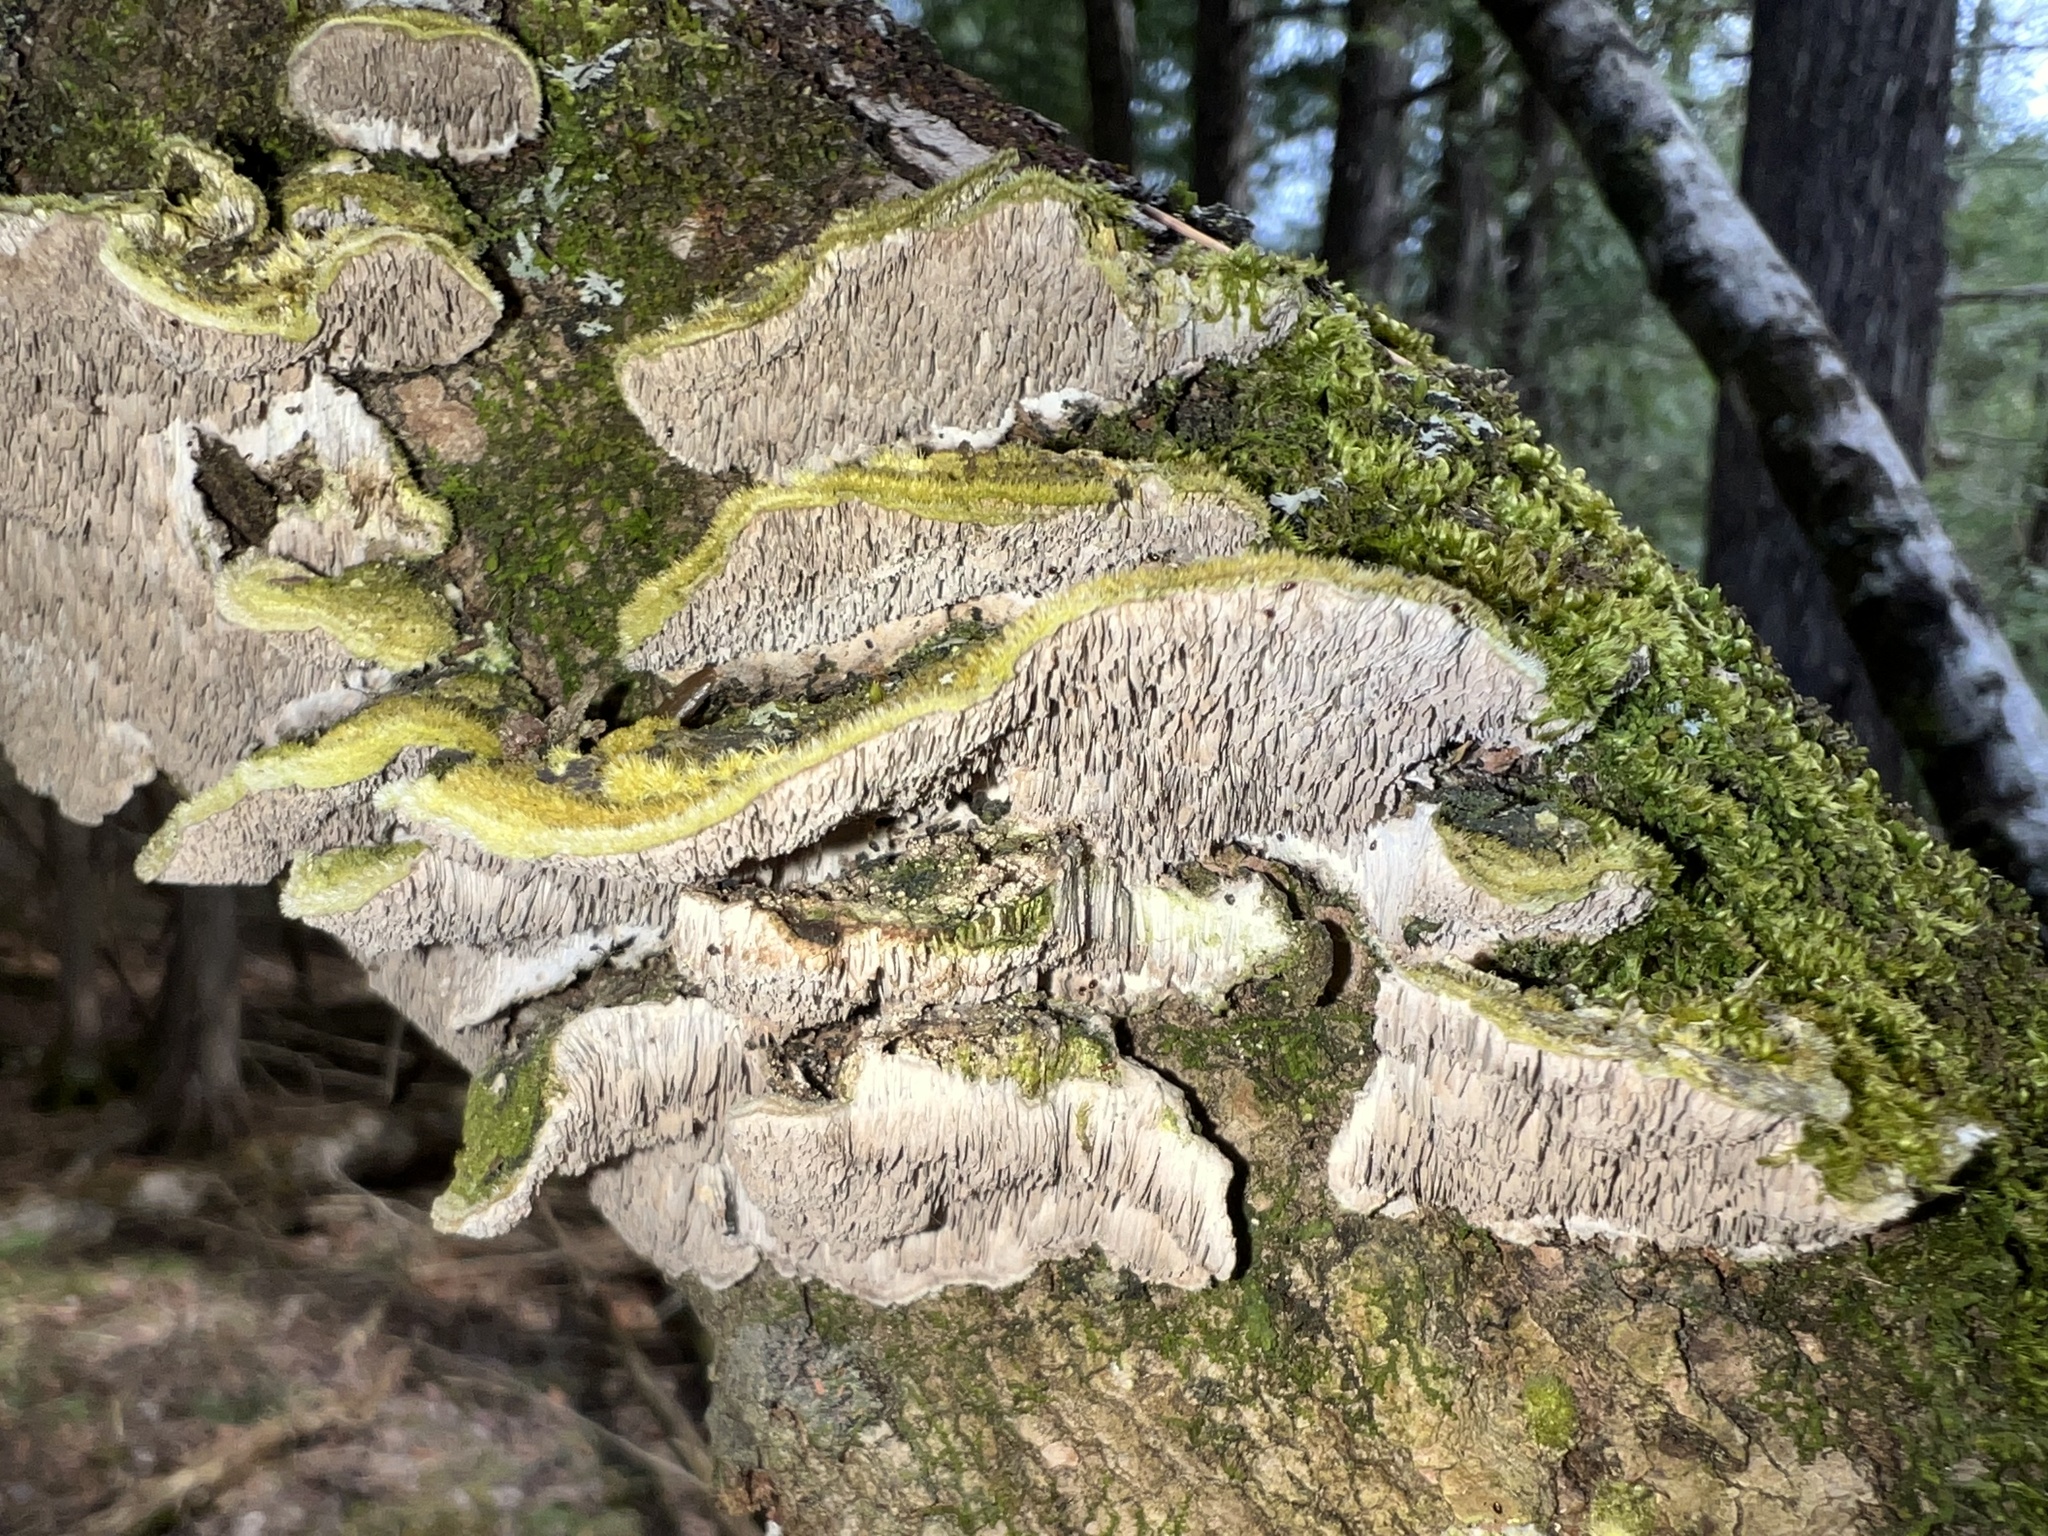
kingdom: Fungi
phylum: Basidiomycota
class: Agaricomycetes
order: Polyporales
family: Cerrenaceae
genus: Cerrena
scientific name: Cerrena unicolor
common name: Mossy maze polypore
